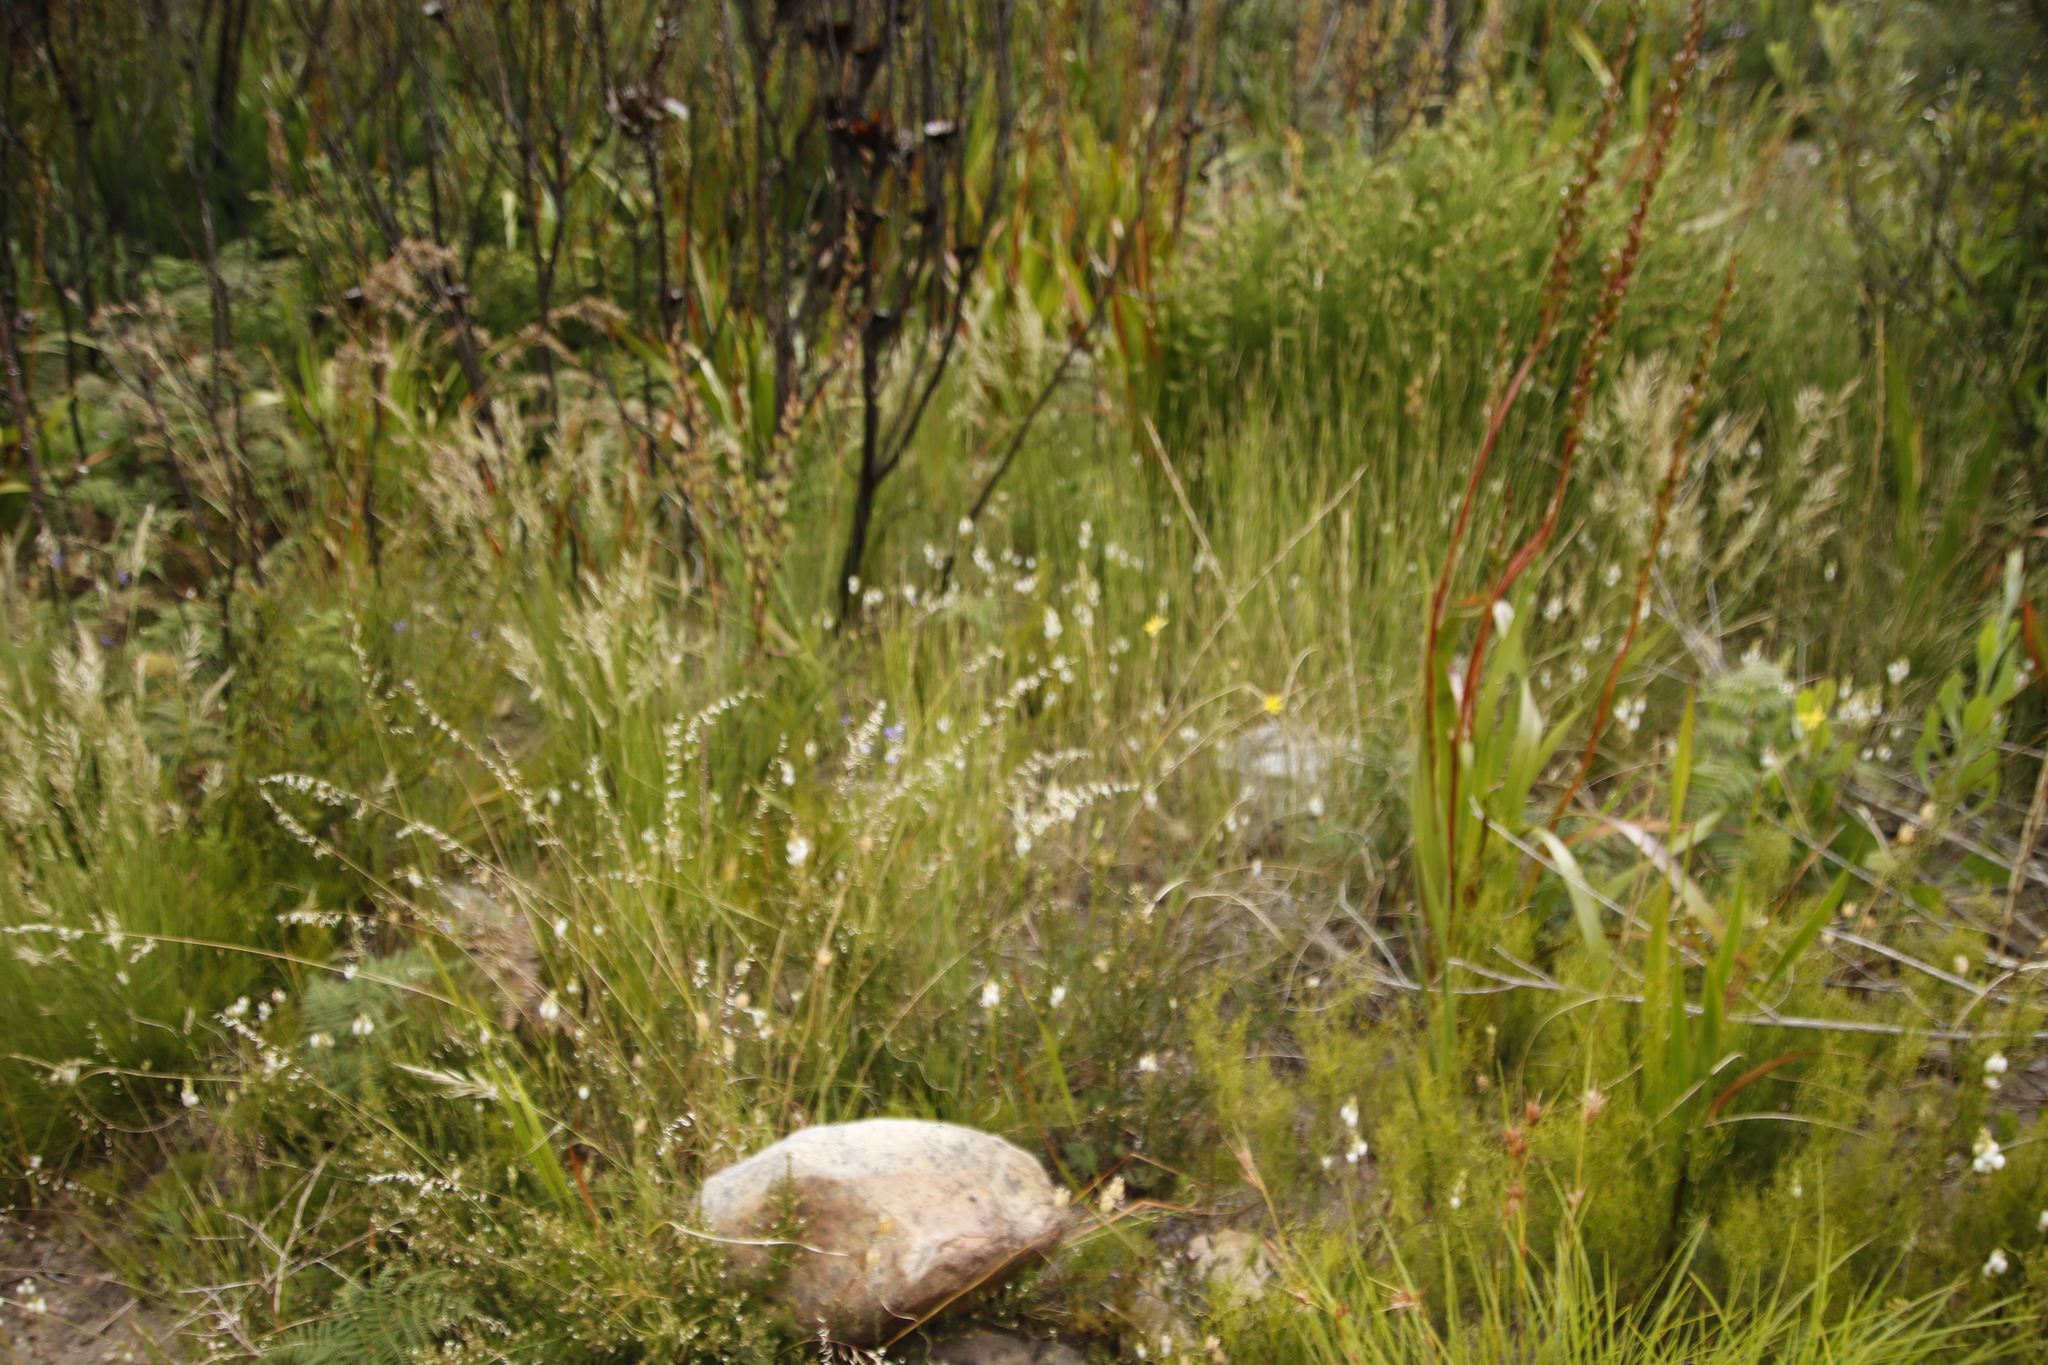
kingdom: Plantae
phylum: Tracheophyta
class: Liliopsida
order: Asparagales
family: Iridaceae
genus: Schizorhiza
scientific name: Schizorhiza neglecta
